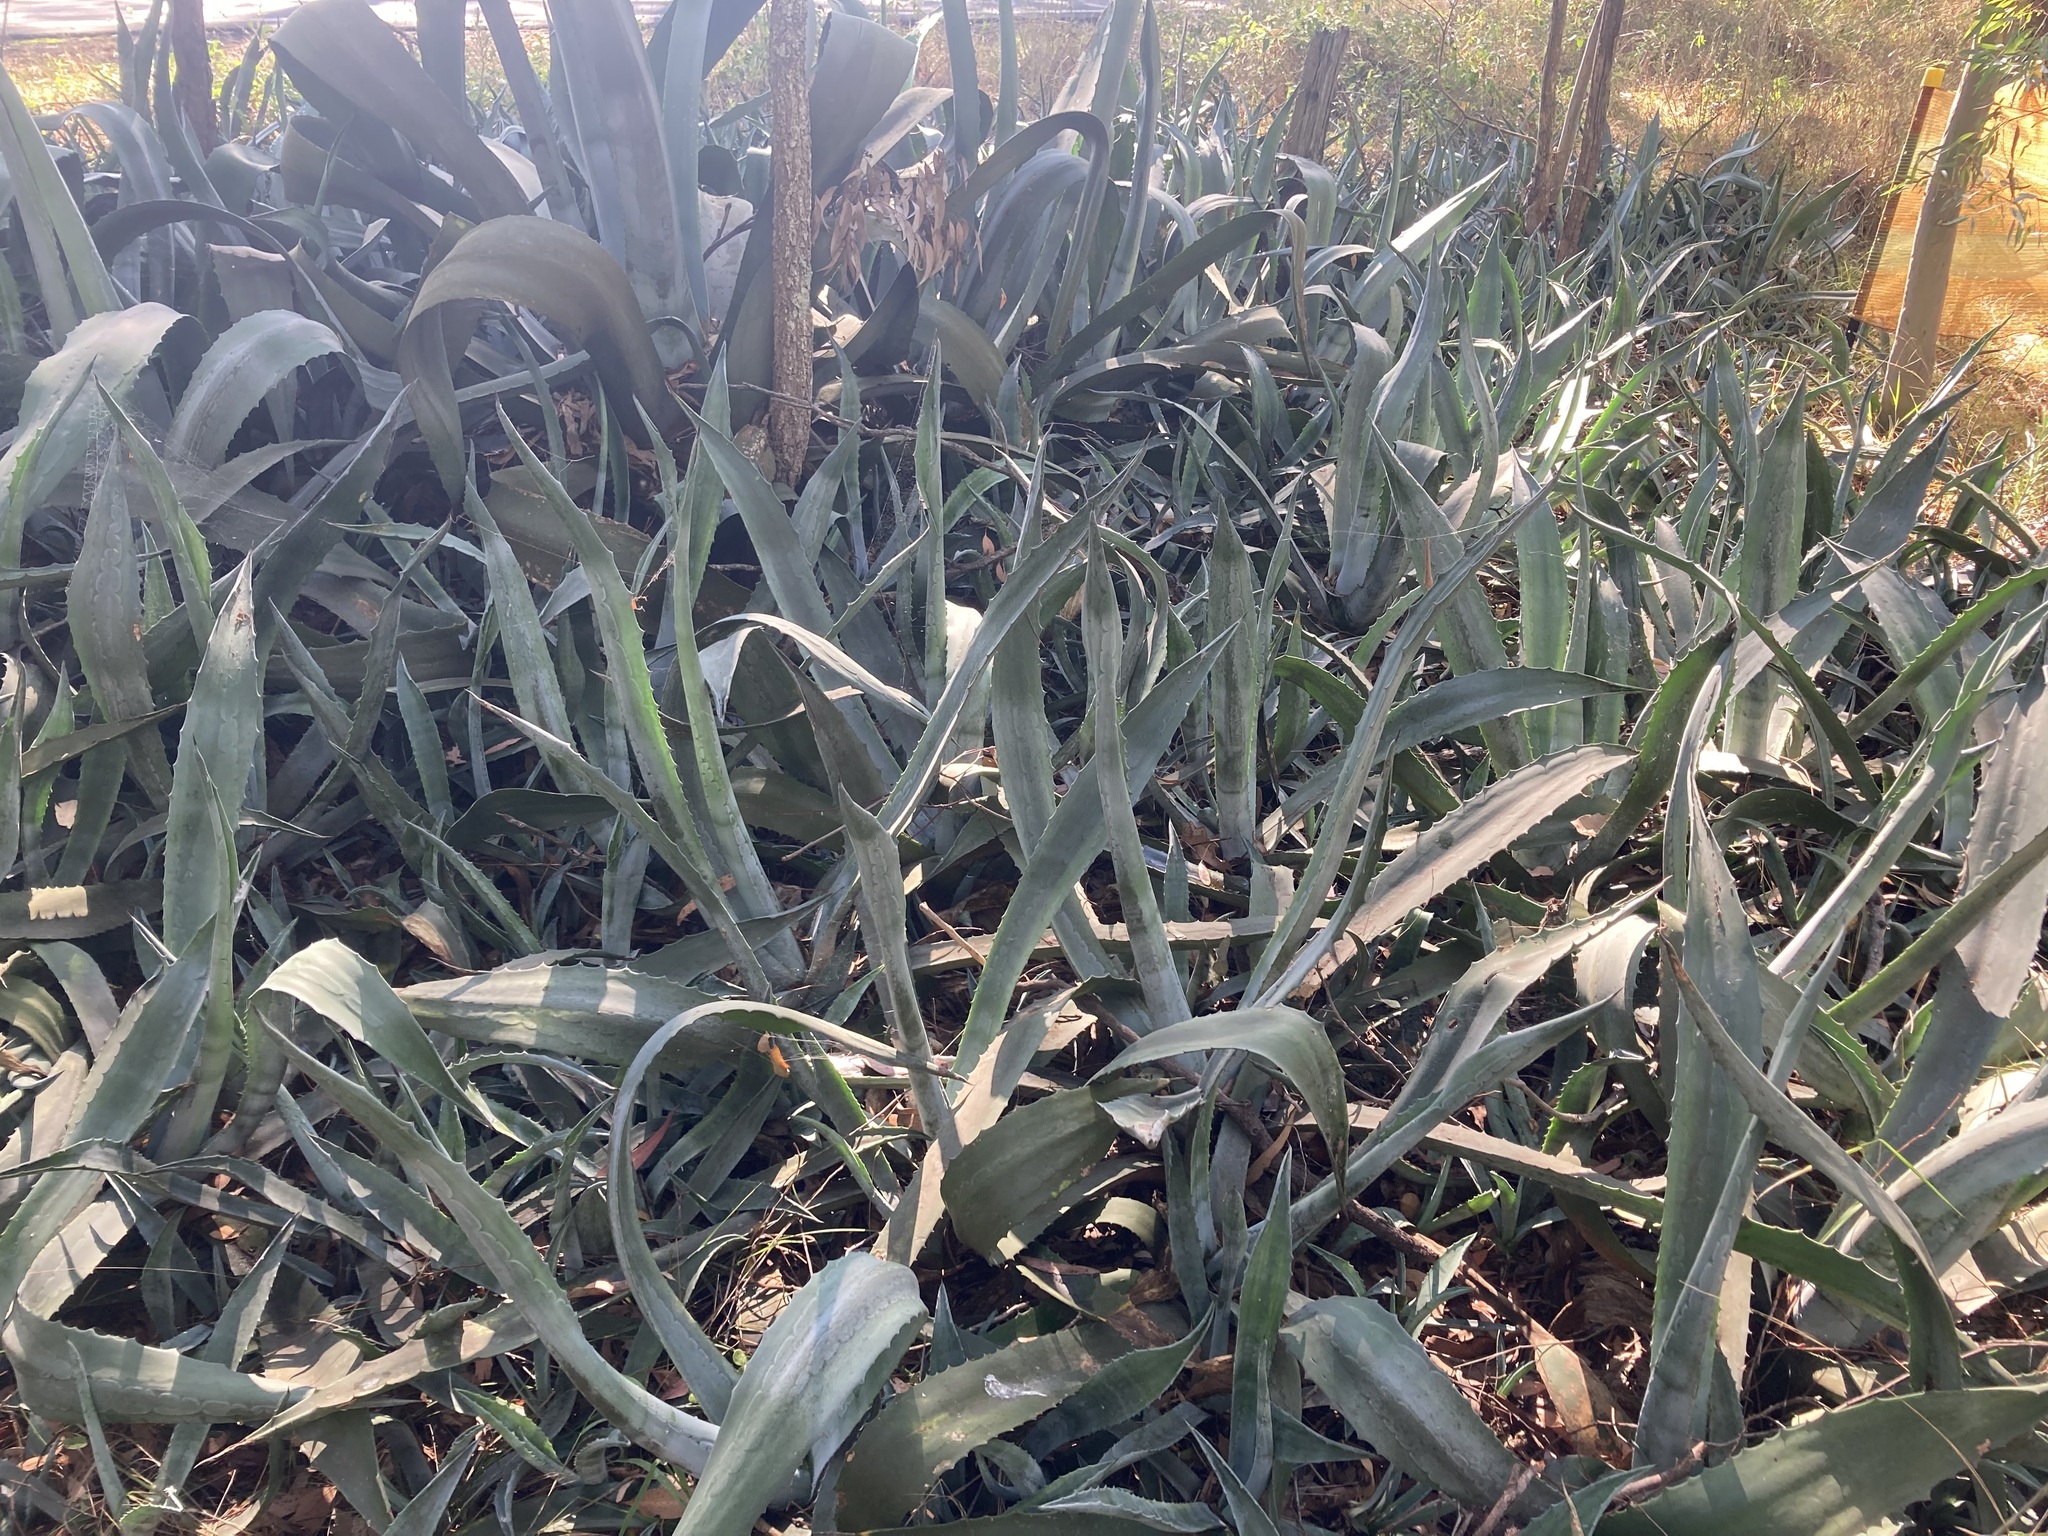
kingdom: Plantae
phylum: Tracheophyta
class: Liliopsida
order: Asparagales
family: Asparagaceae
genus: Agave
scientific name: Agave americana
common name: Centuryplant
